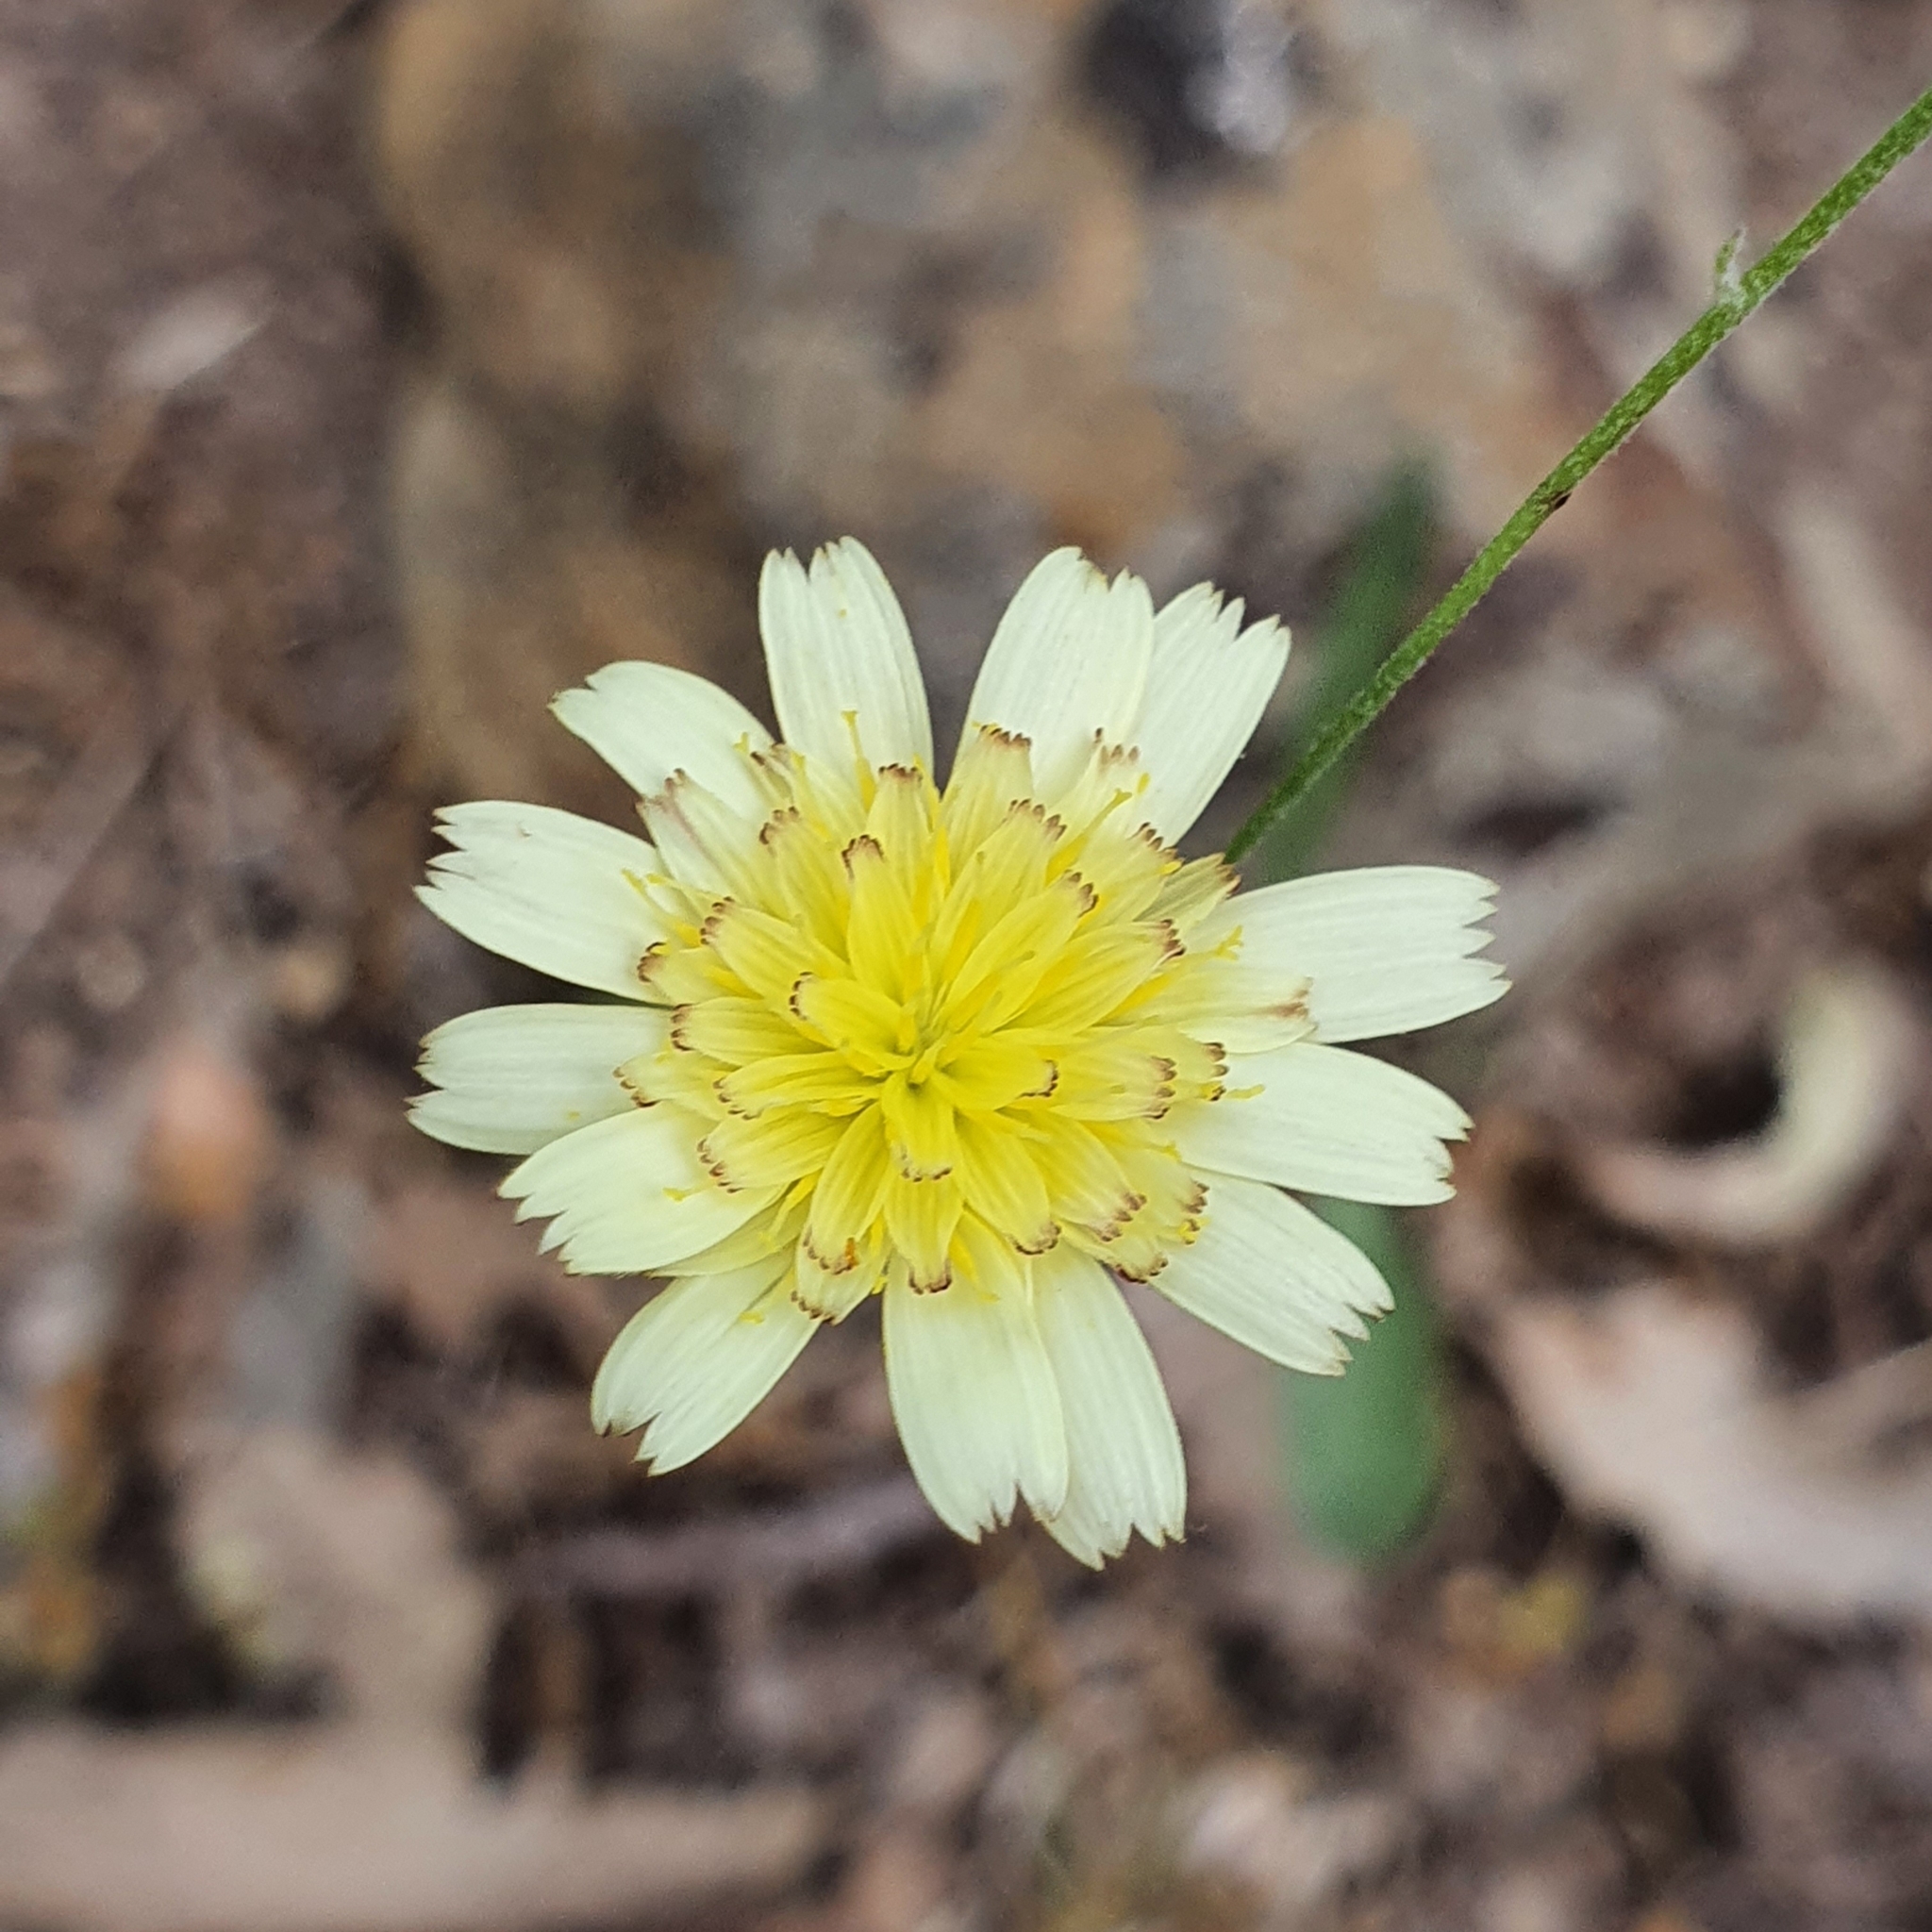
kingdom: Plantae
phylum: Tracheophyta
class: Magnoliopsida
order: Asterales
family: Asteraceae
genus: Tolpis
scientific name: Tolpis virgata
